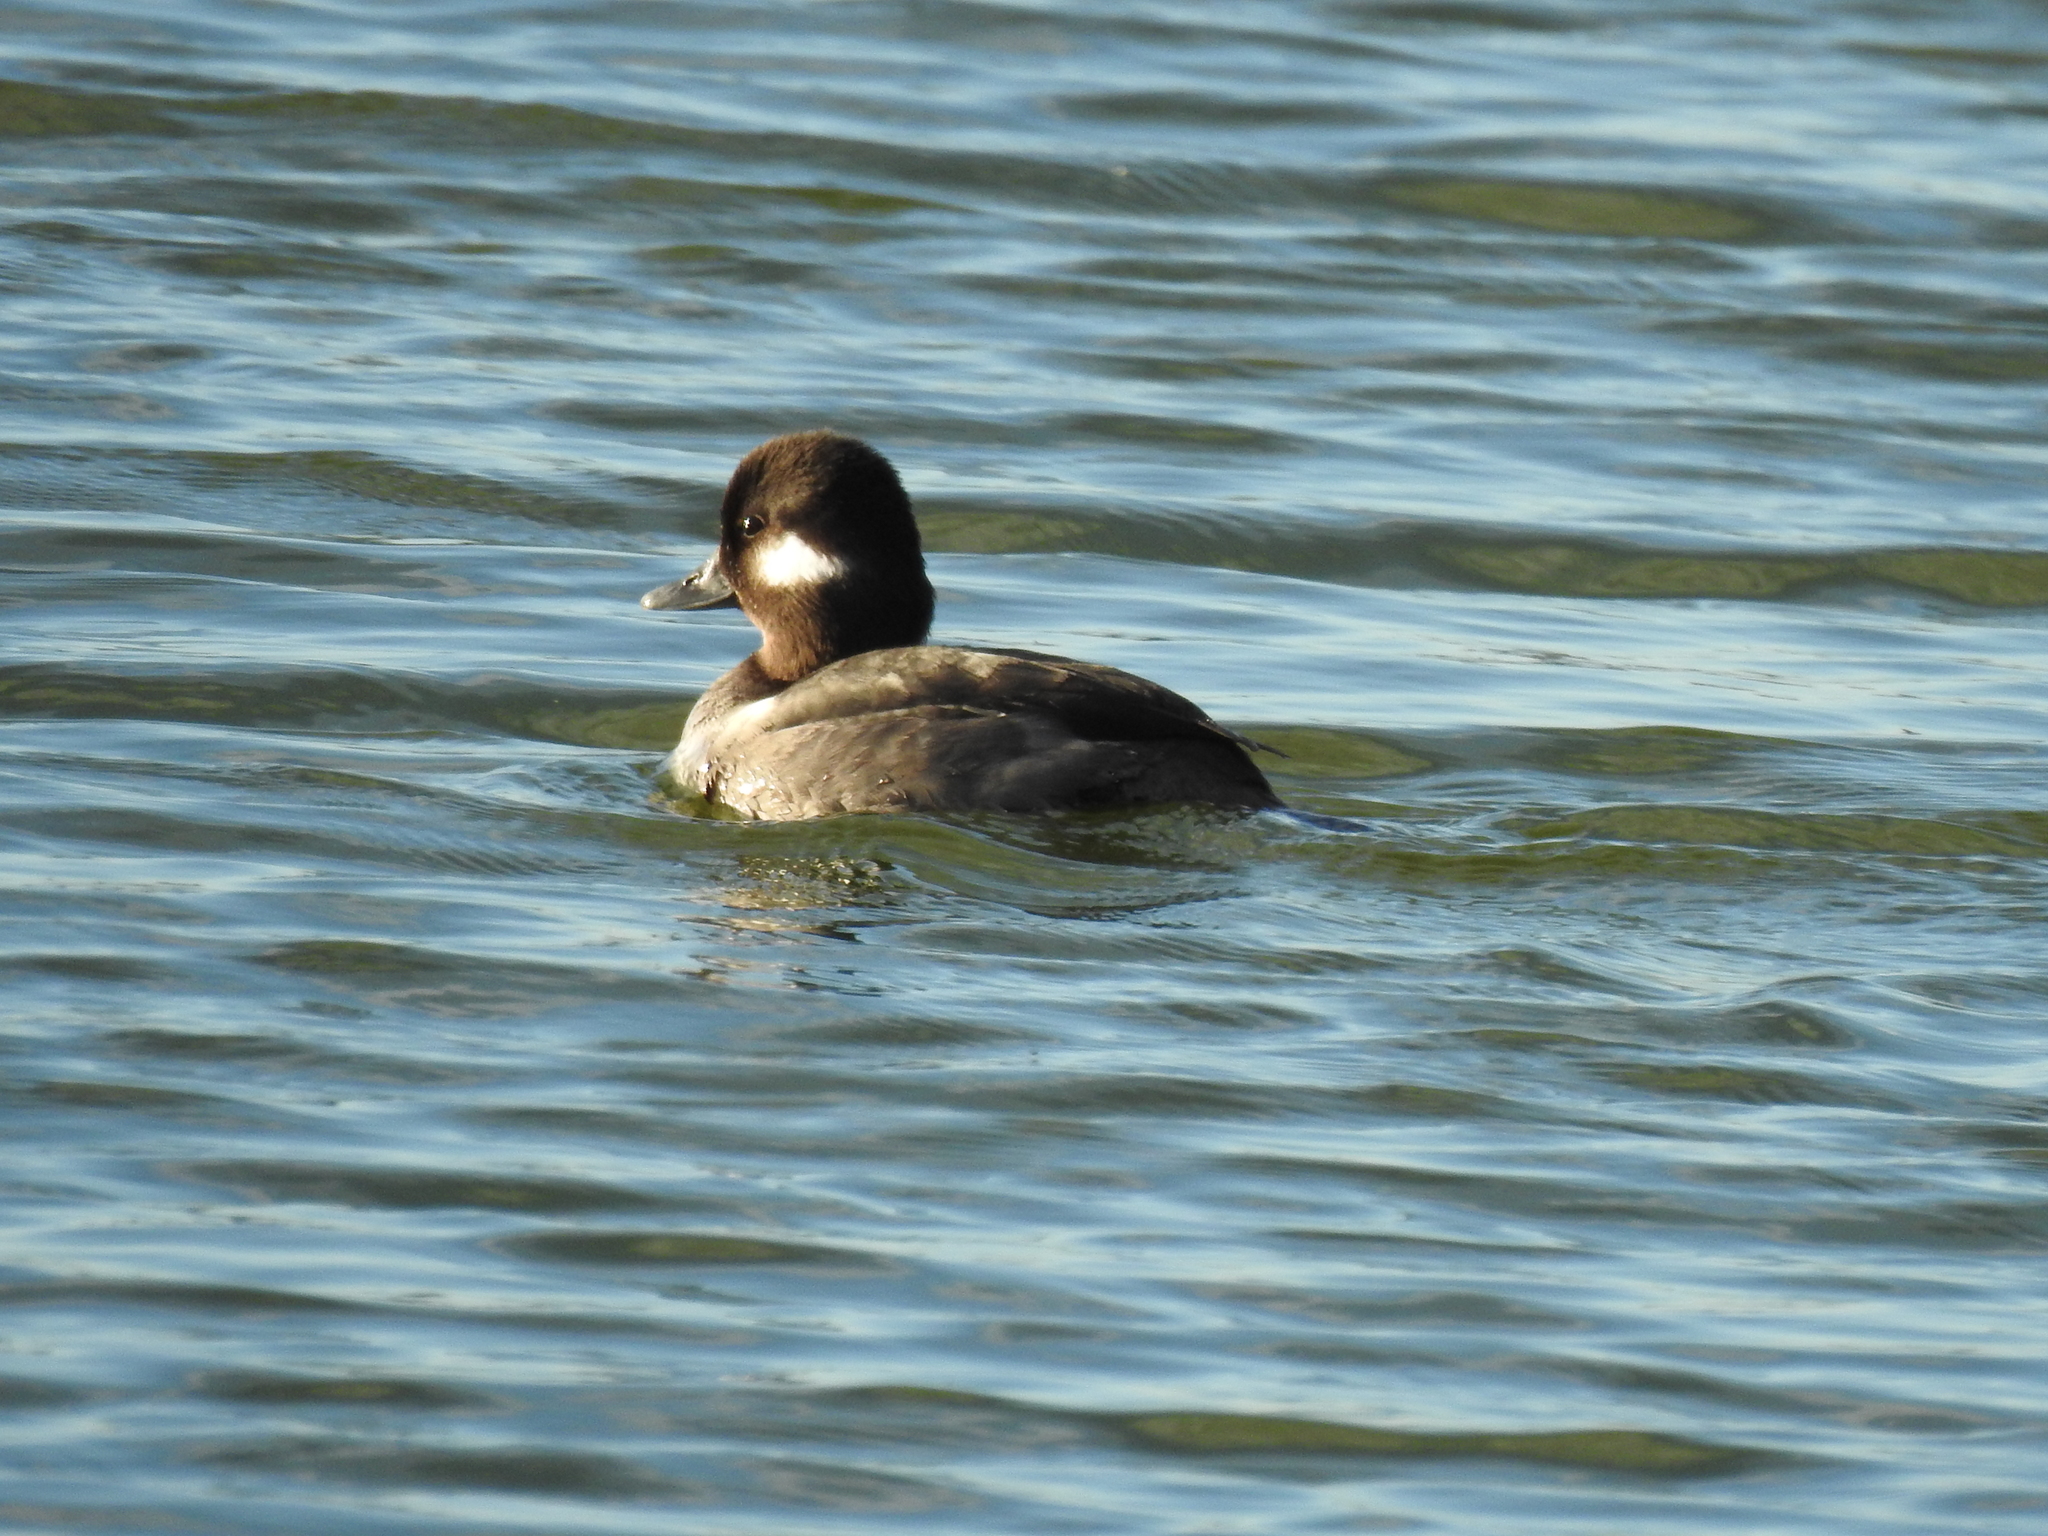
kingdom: Animalia
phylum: Chordata
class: Aves
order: Anseriformes
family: Anatidae
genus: Bucephala
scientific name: Bucephala albeola
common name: Bufflehead
